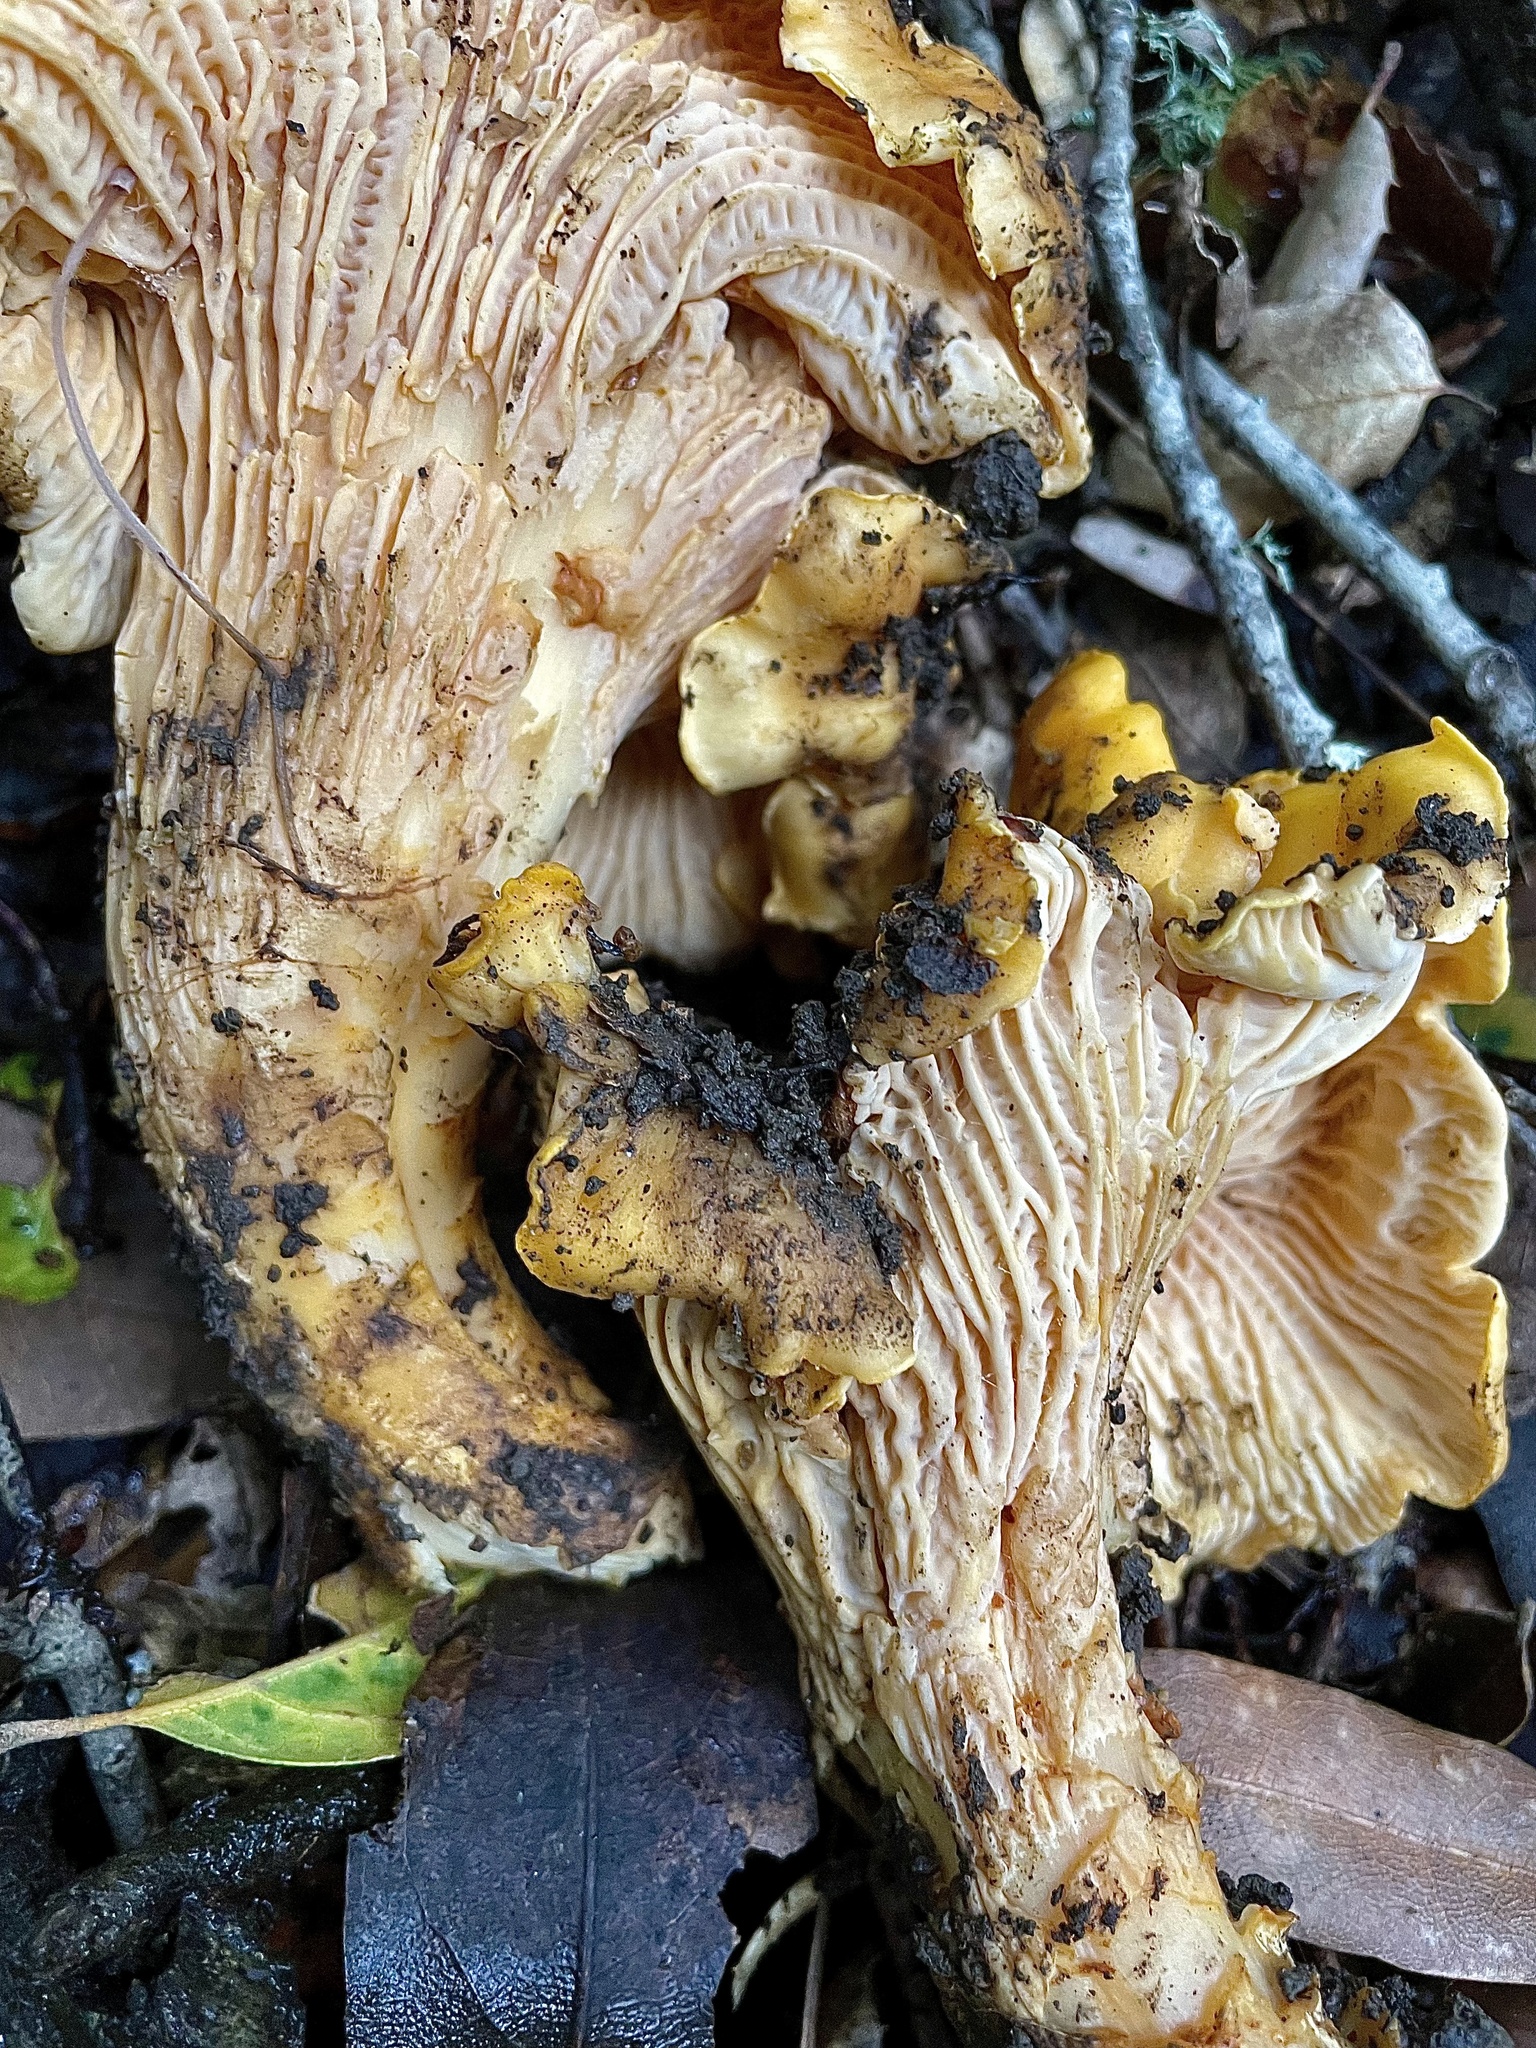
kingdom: Fungi
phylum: Basidiomycota
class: Agaricomycetes
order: Cantharellales
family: Hydnaceae
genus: Cantharellus
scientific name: Cantharellus californicus
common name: California golden chanterelle
